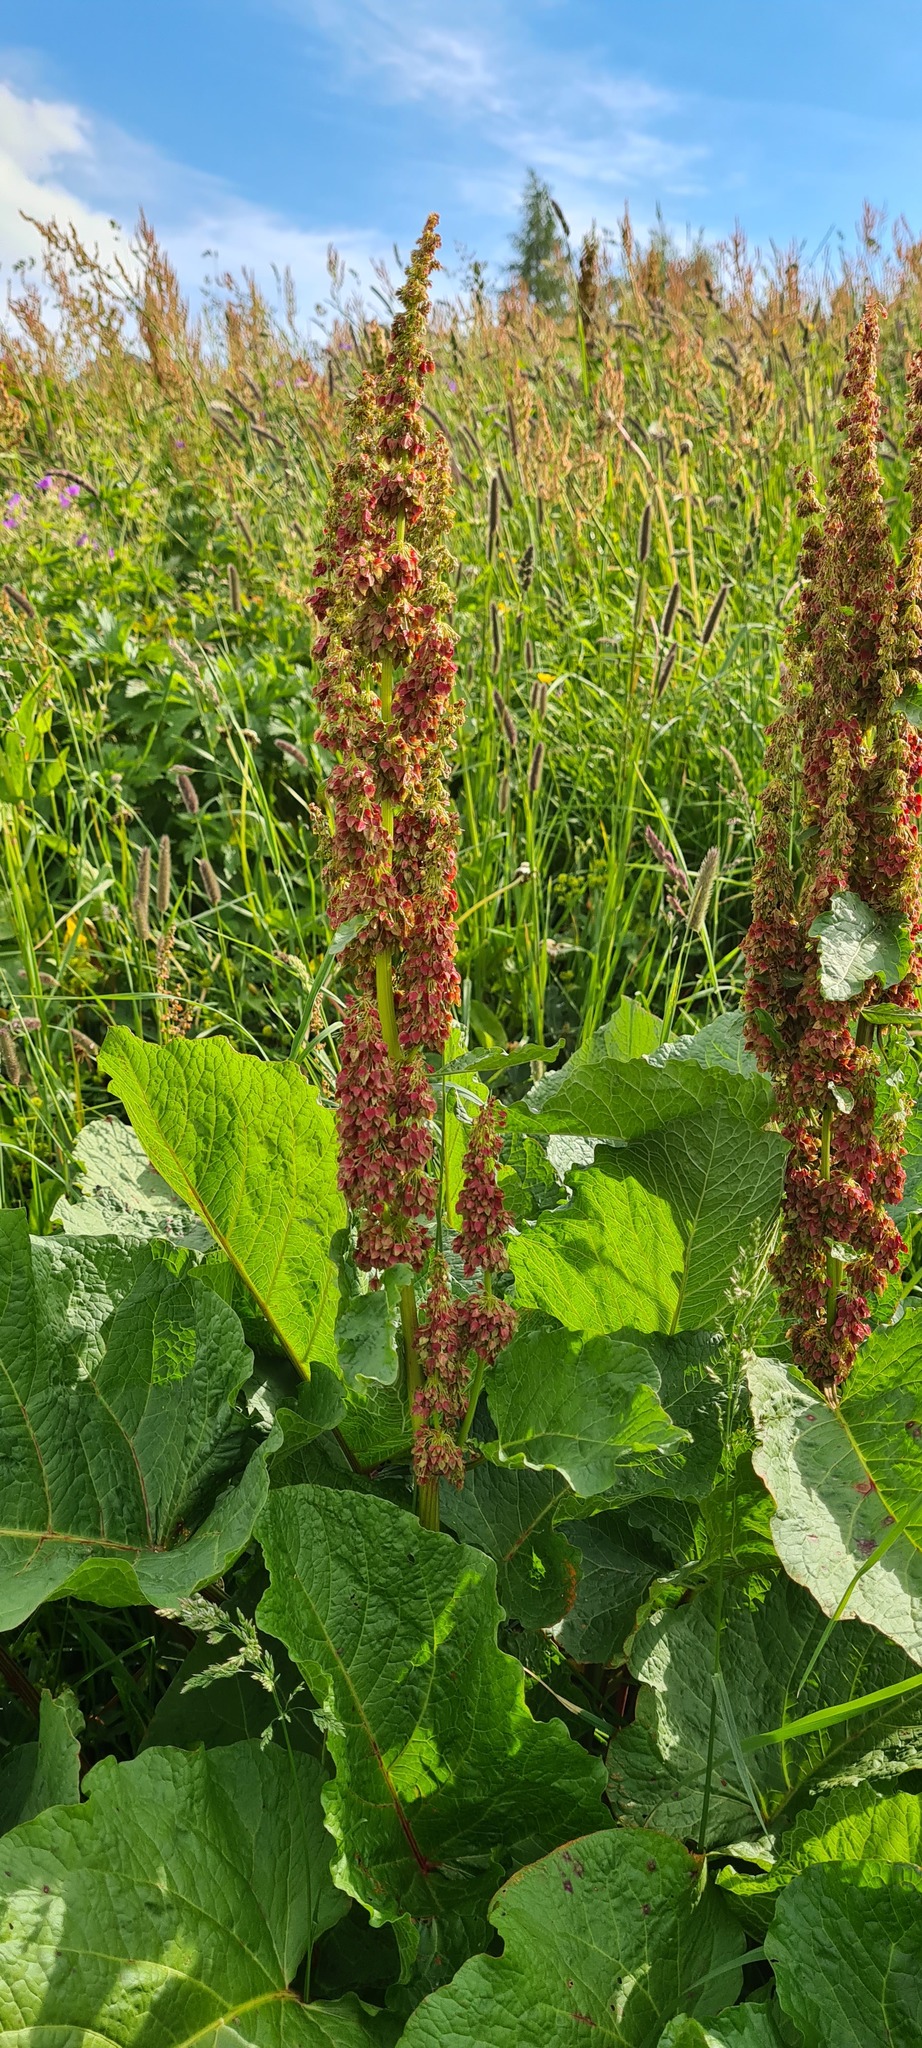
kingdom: Plantae
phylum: Tracheophyta
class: Magnoliopsida
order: Caryophyllales
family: Polygonaceae
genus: Rumex
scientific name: Rumex alpinus
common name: Alpine dock
